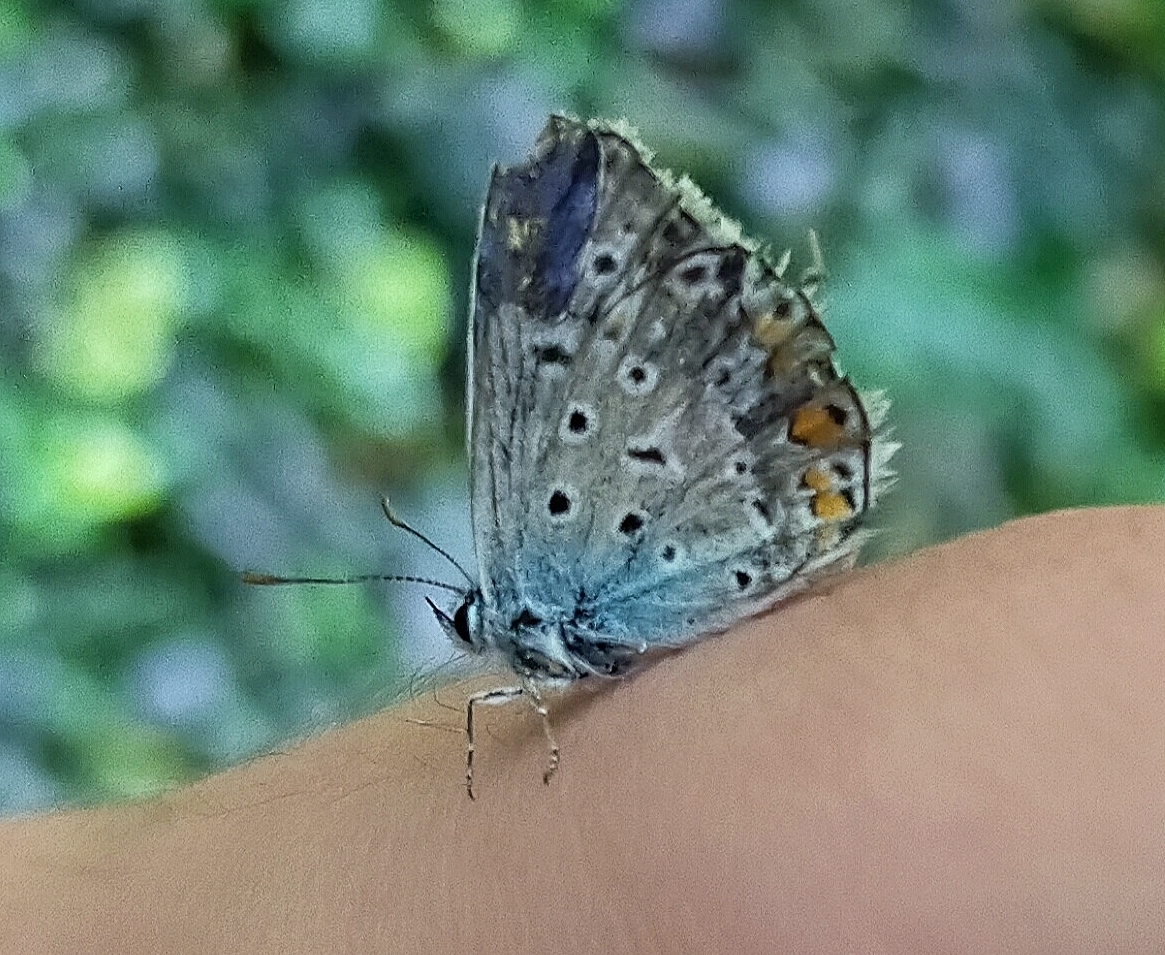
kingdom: Animalia
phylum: Arthropoda
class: Insecta
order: Lepidoptera
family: Lycaenidae
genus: Polyommatus
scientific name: Polyommatus icarus
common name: Common blue
